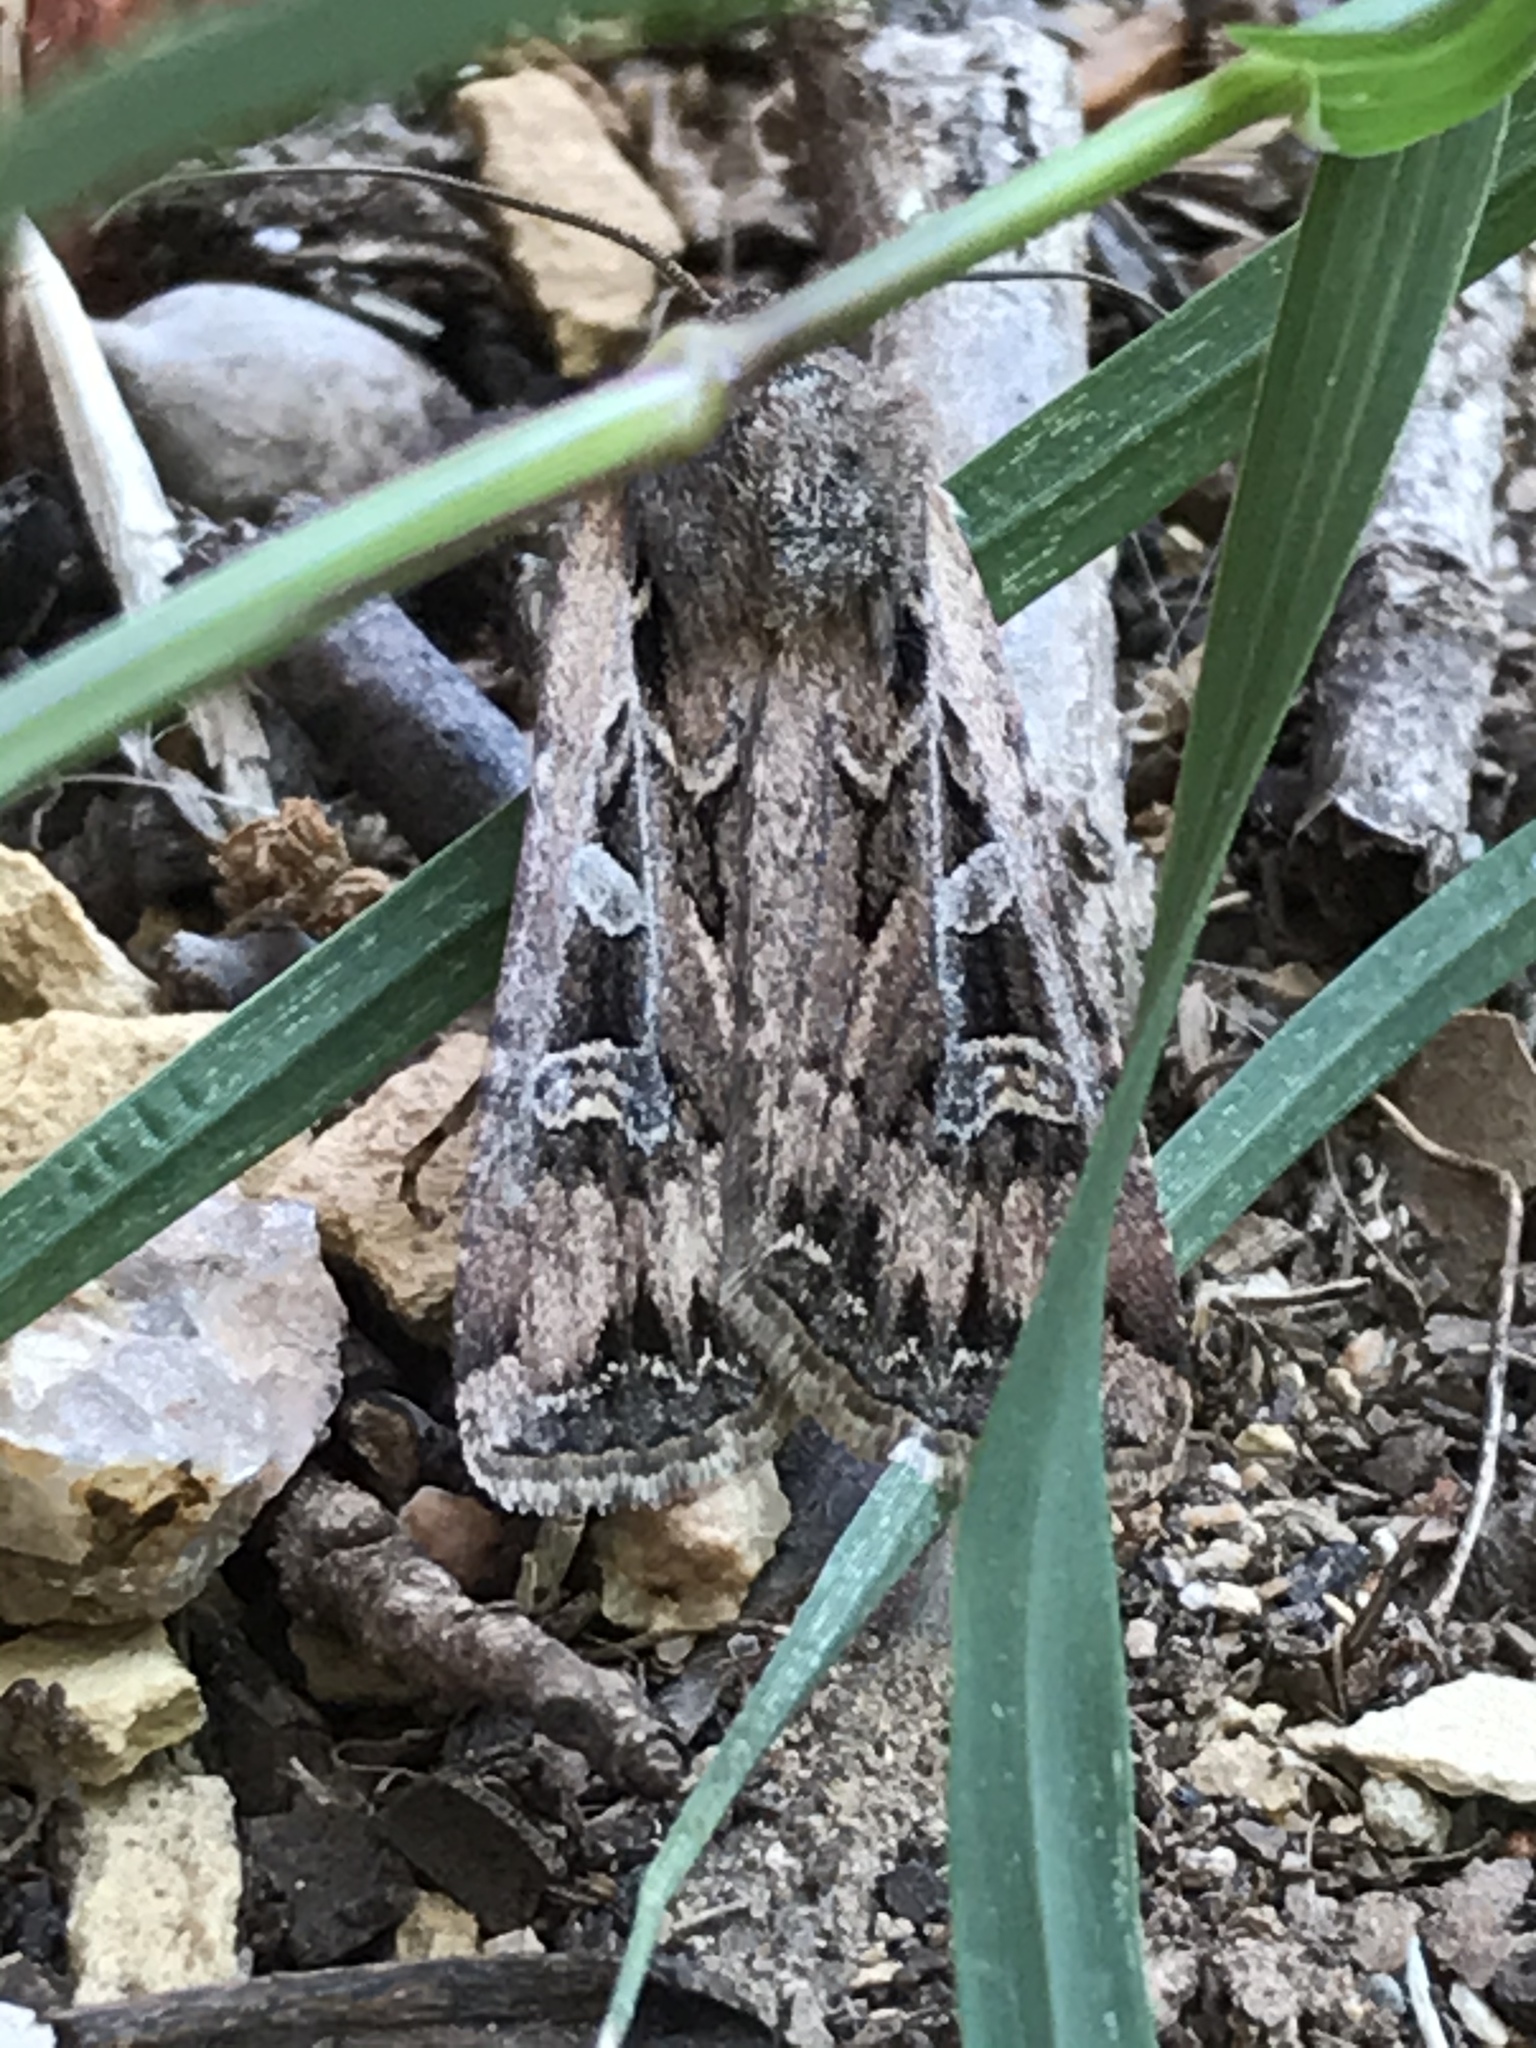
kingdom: Animalia
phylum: Arthropoda
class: Insecta
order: Lepidoptera
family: Noctuidae
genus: Euxoa
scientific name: Euxoa auxiliaris
